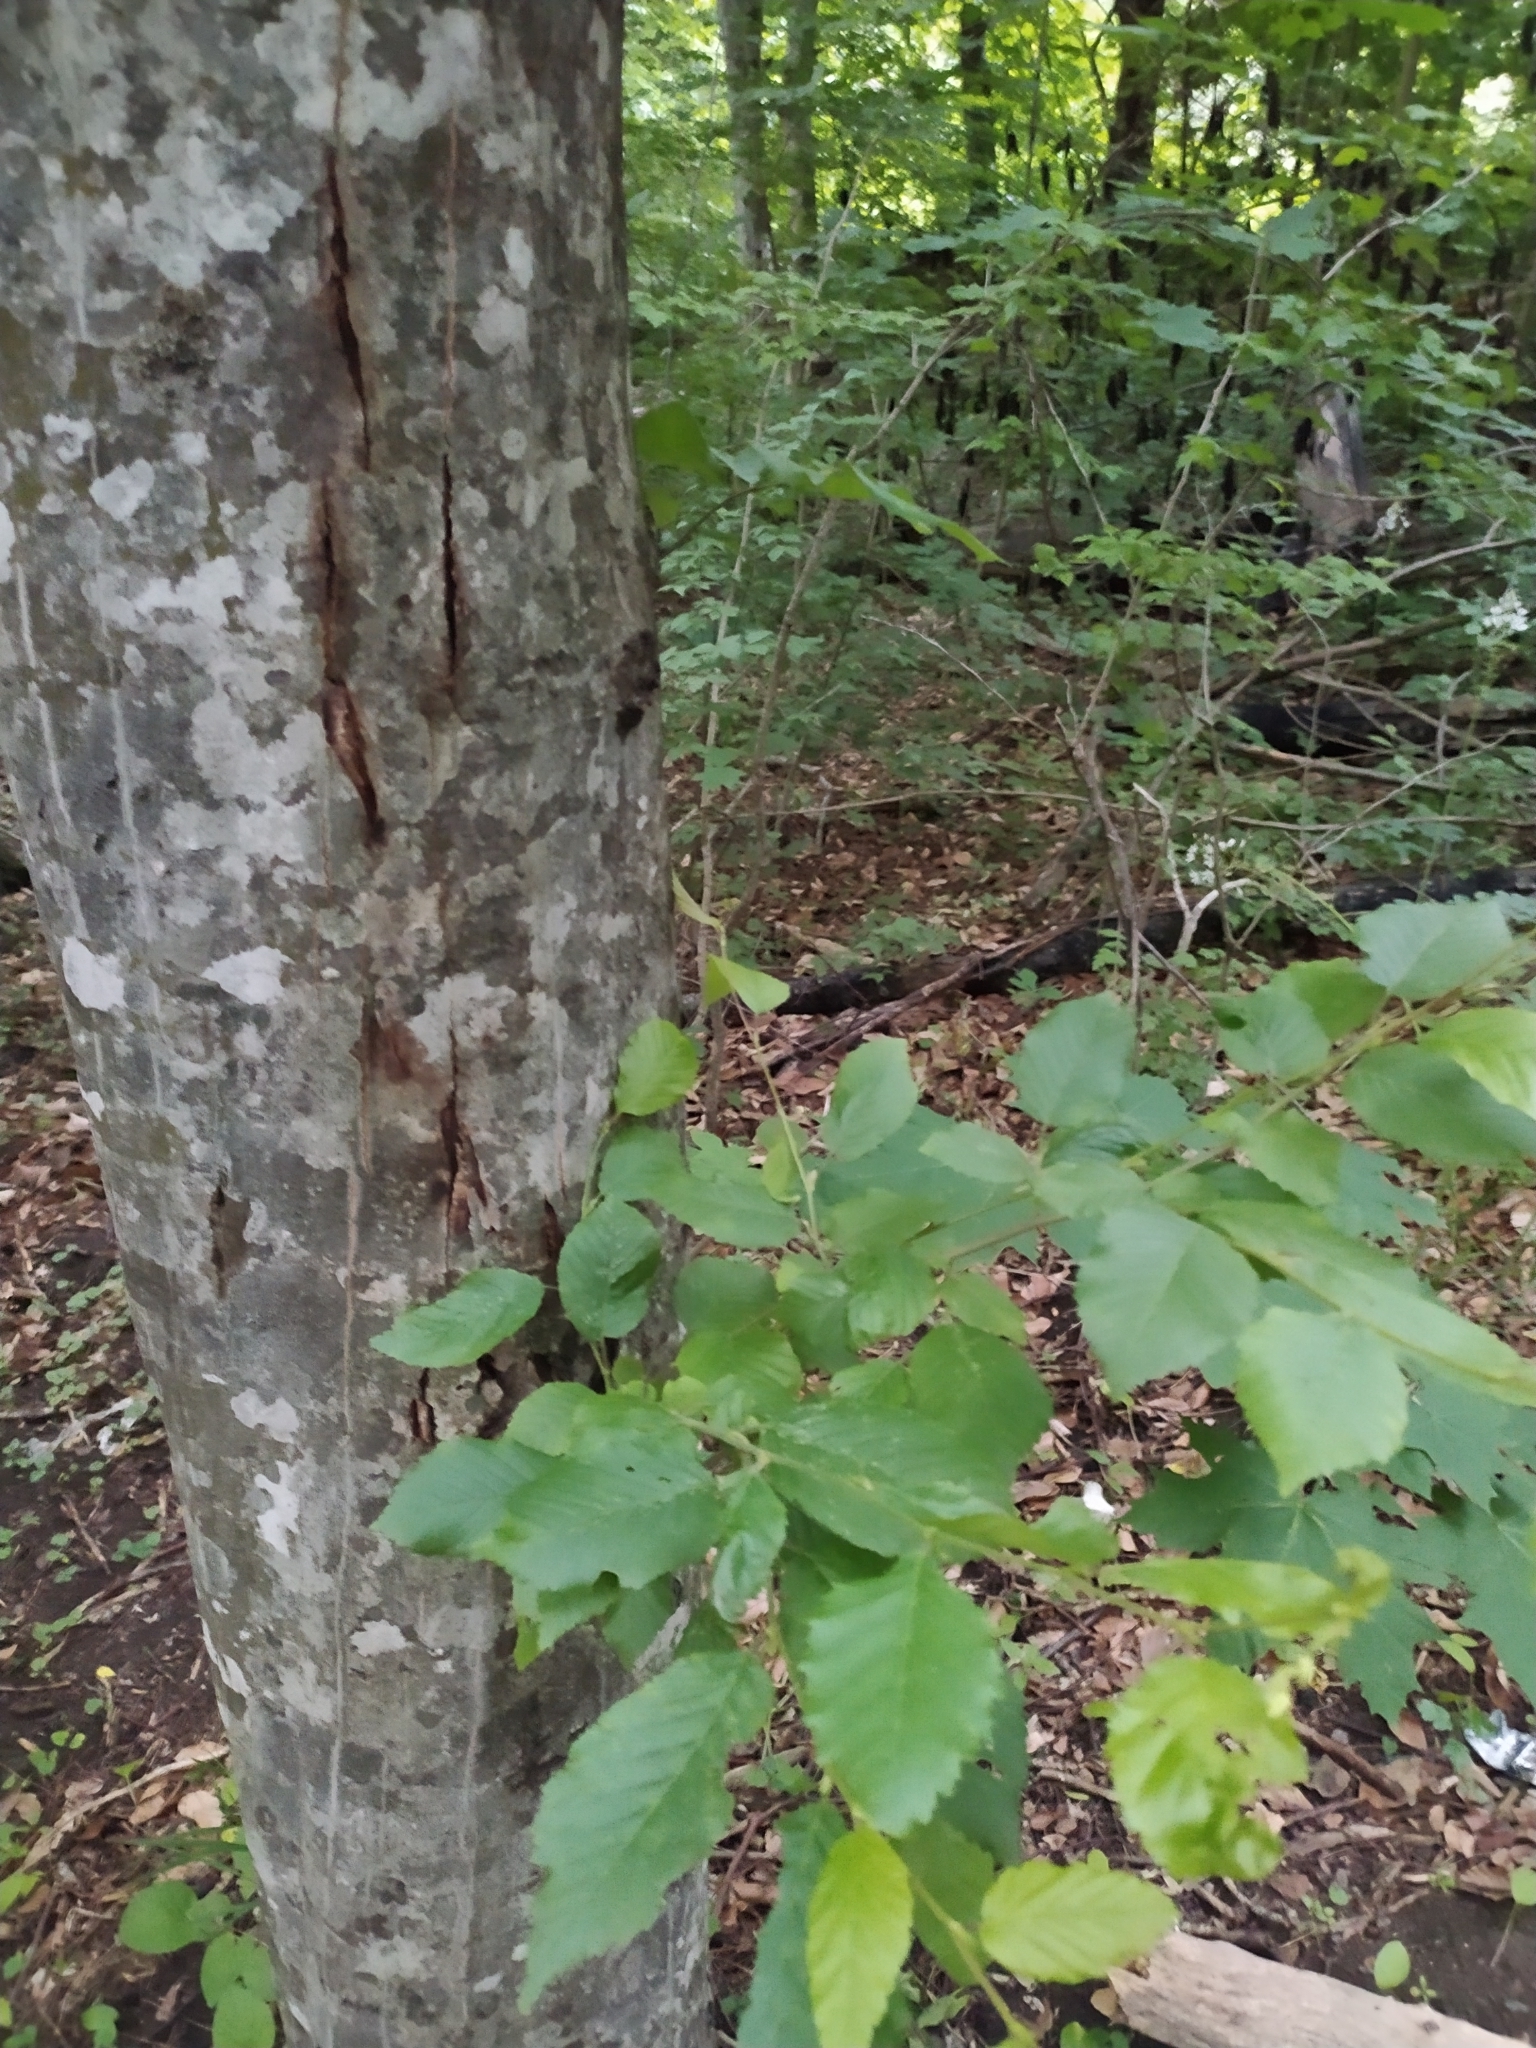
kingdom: Plantae
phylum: Tracheophyta
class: Magnoliopsida
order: Fagales
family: Betulaceae
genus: Carpinus
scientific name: Carpinus betulus
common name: Hornbeam
